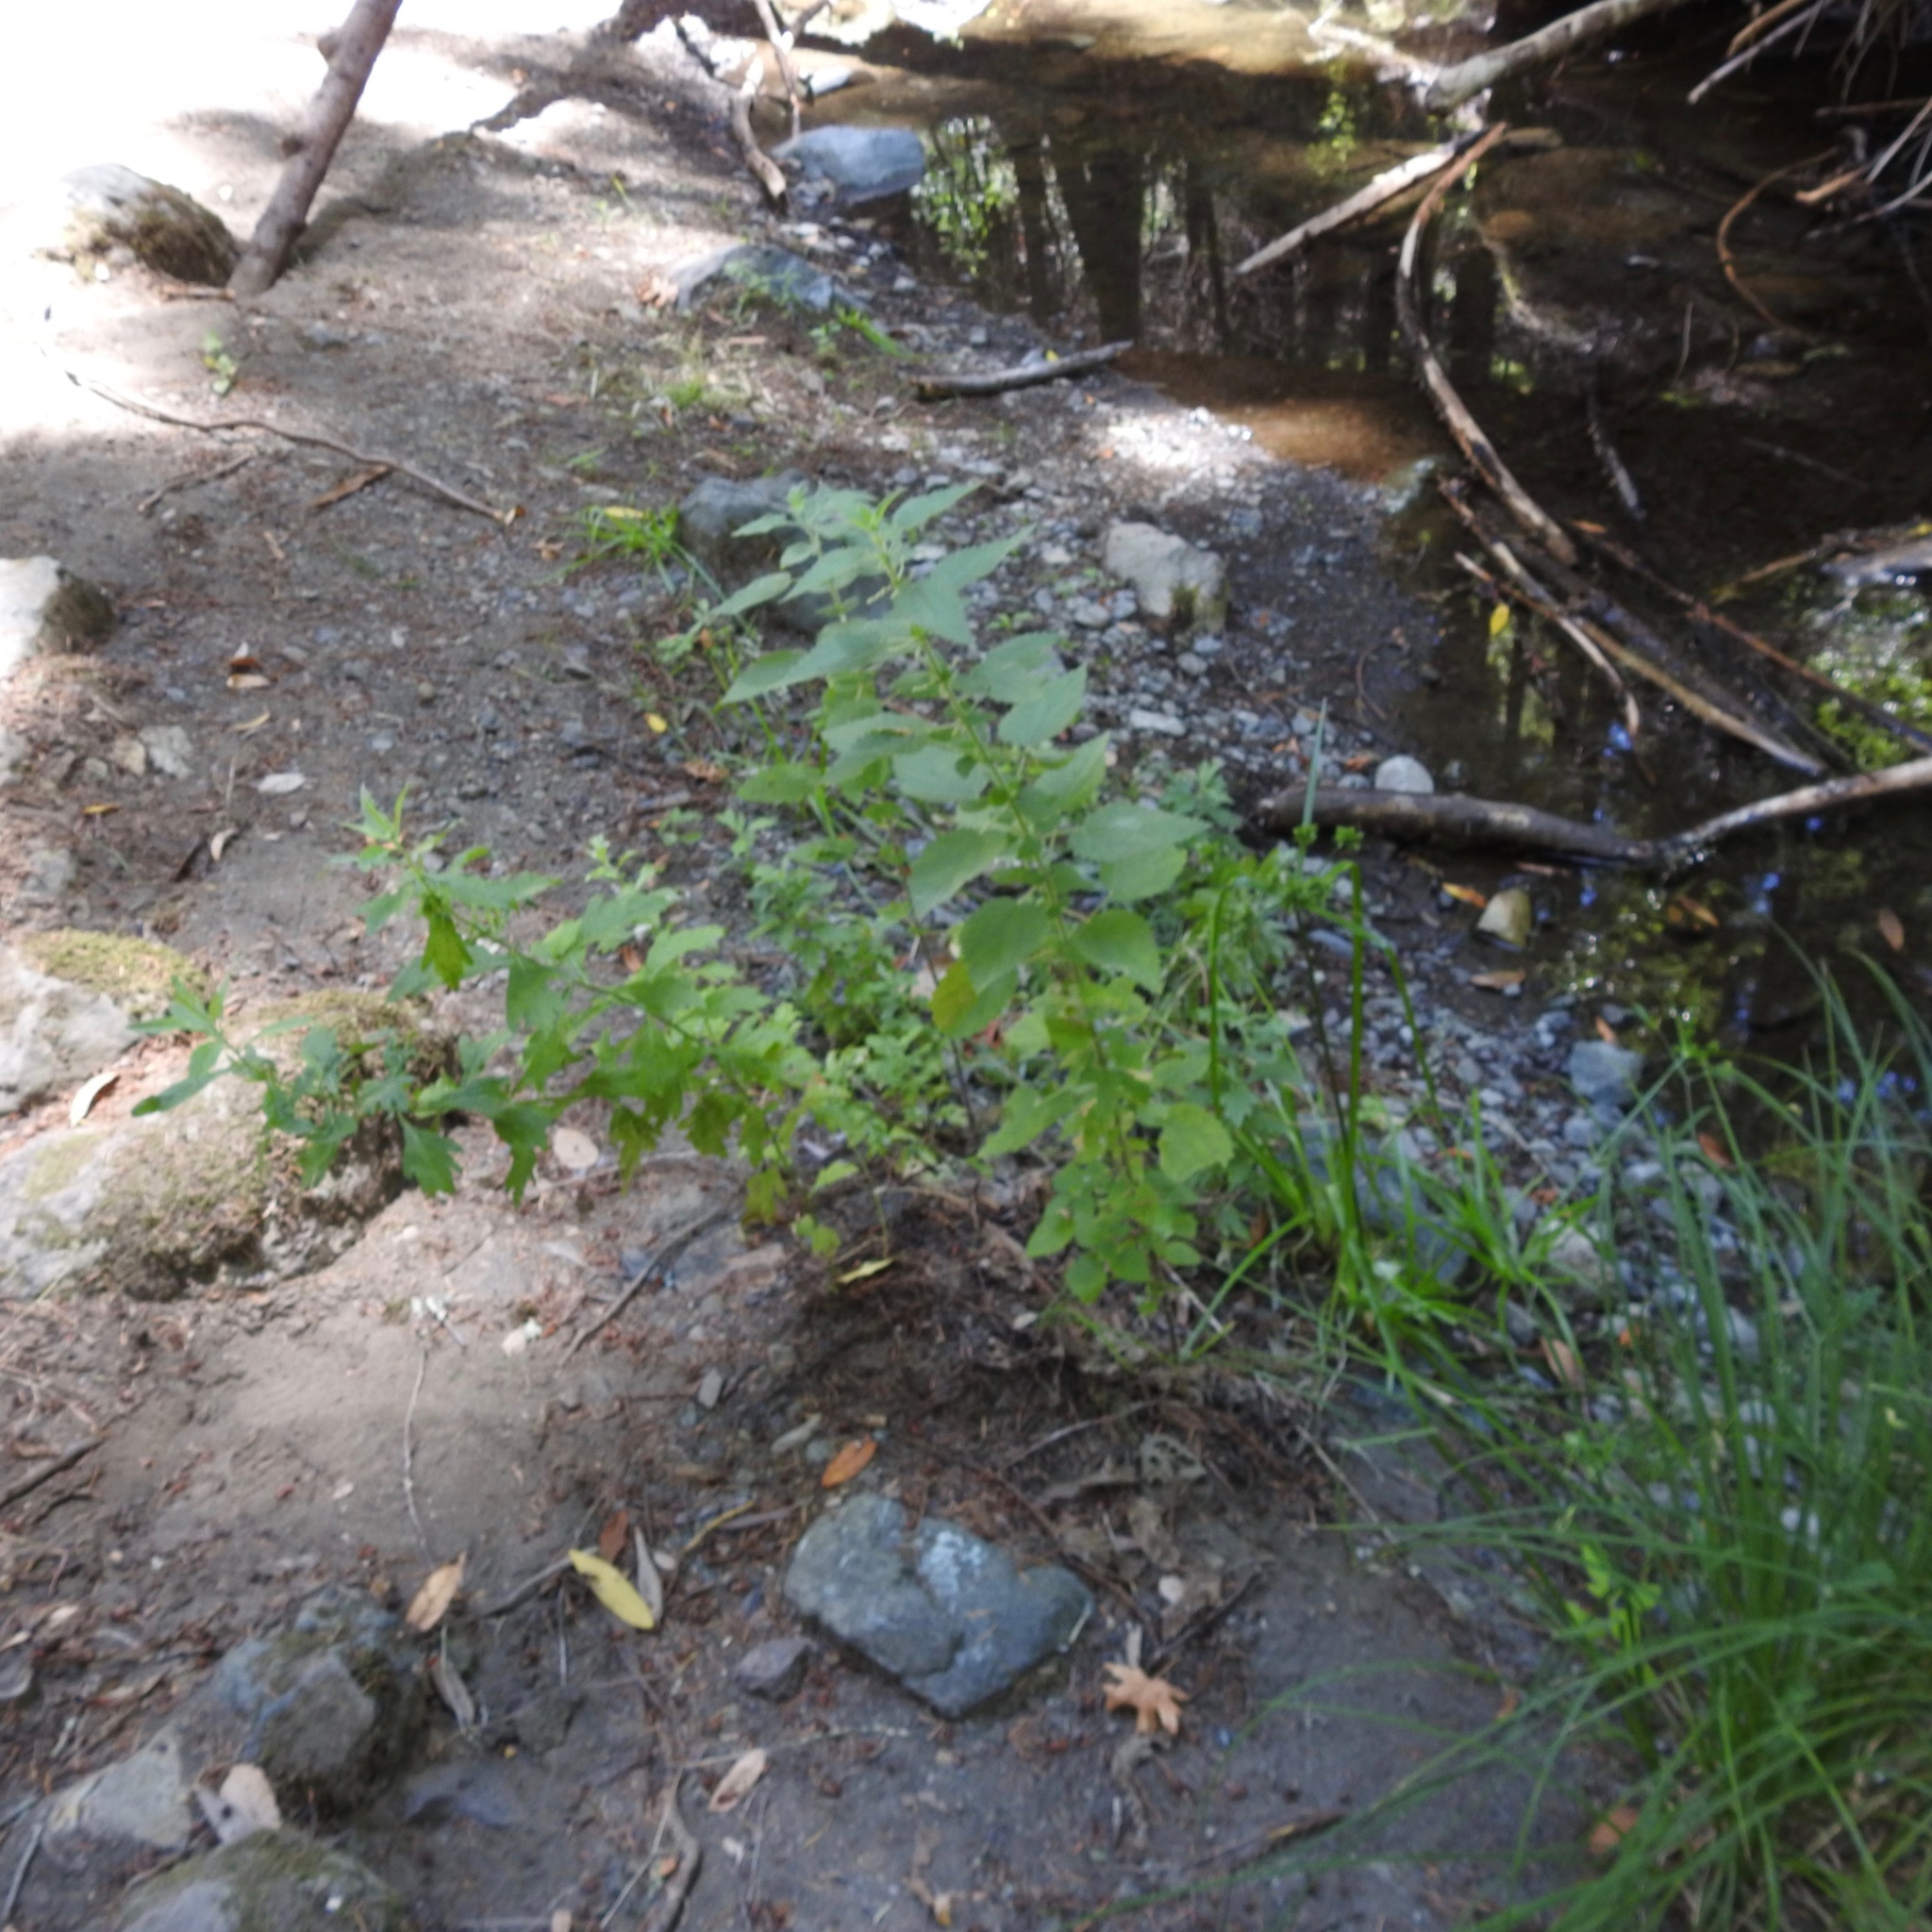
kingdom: Plantae
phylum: Tracheophyta
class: Magnoliopsida
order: Rosales
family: Urticaceae
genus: Urtica
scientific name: Urtica dioica
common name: Common nettle
